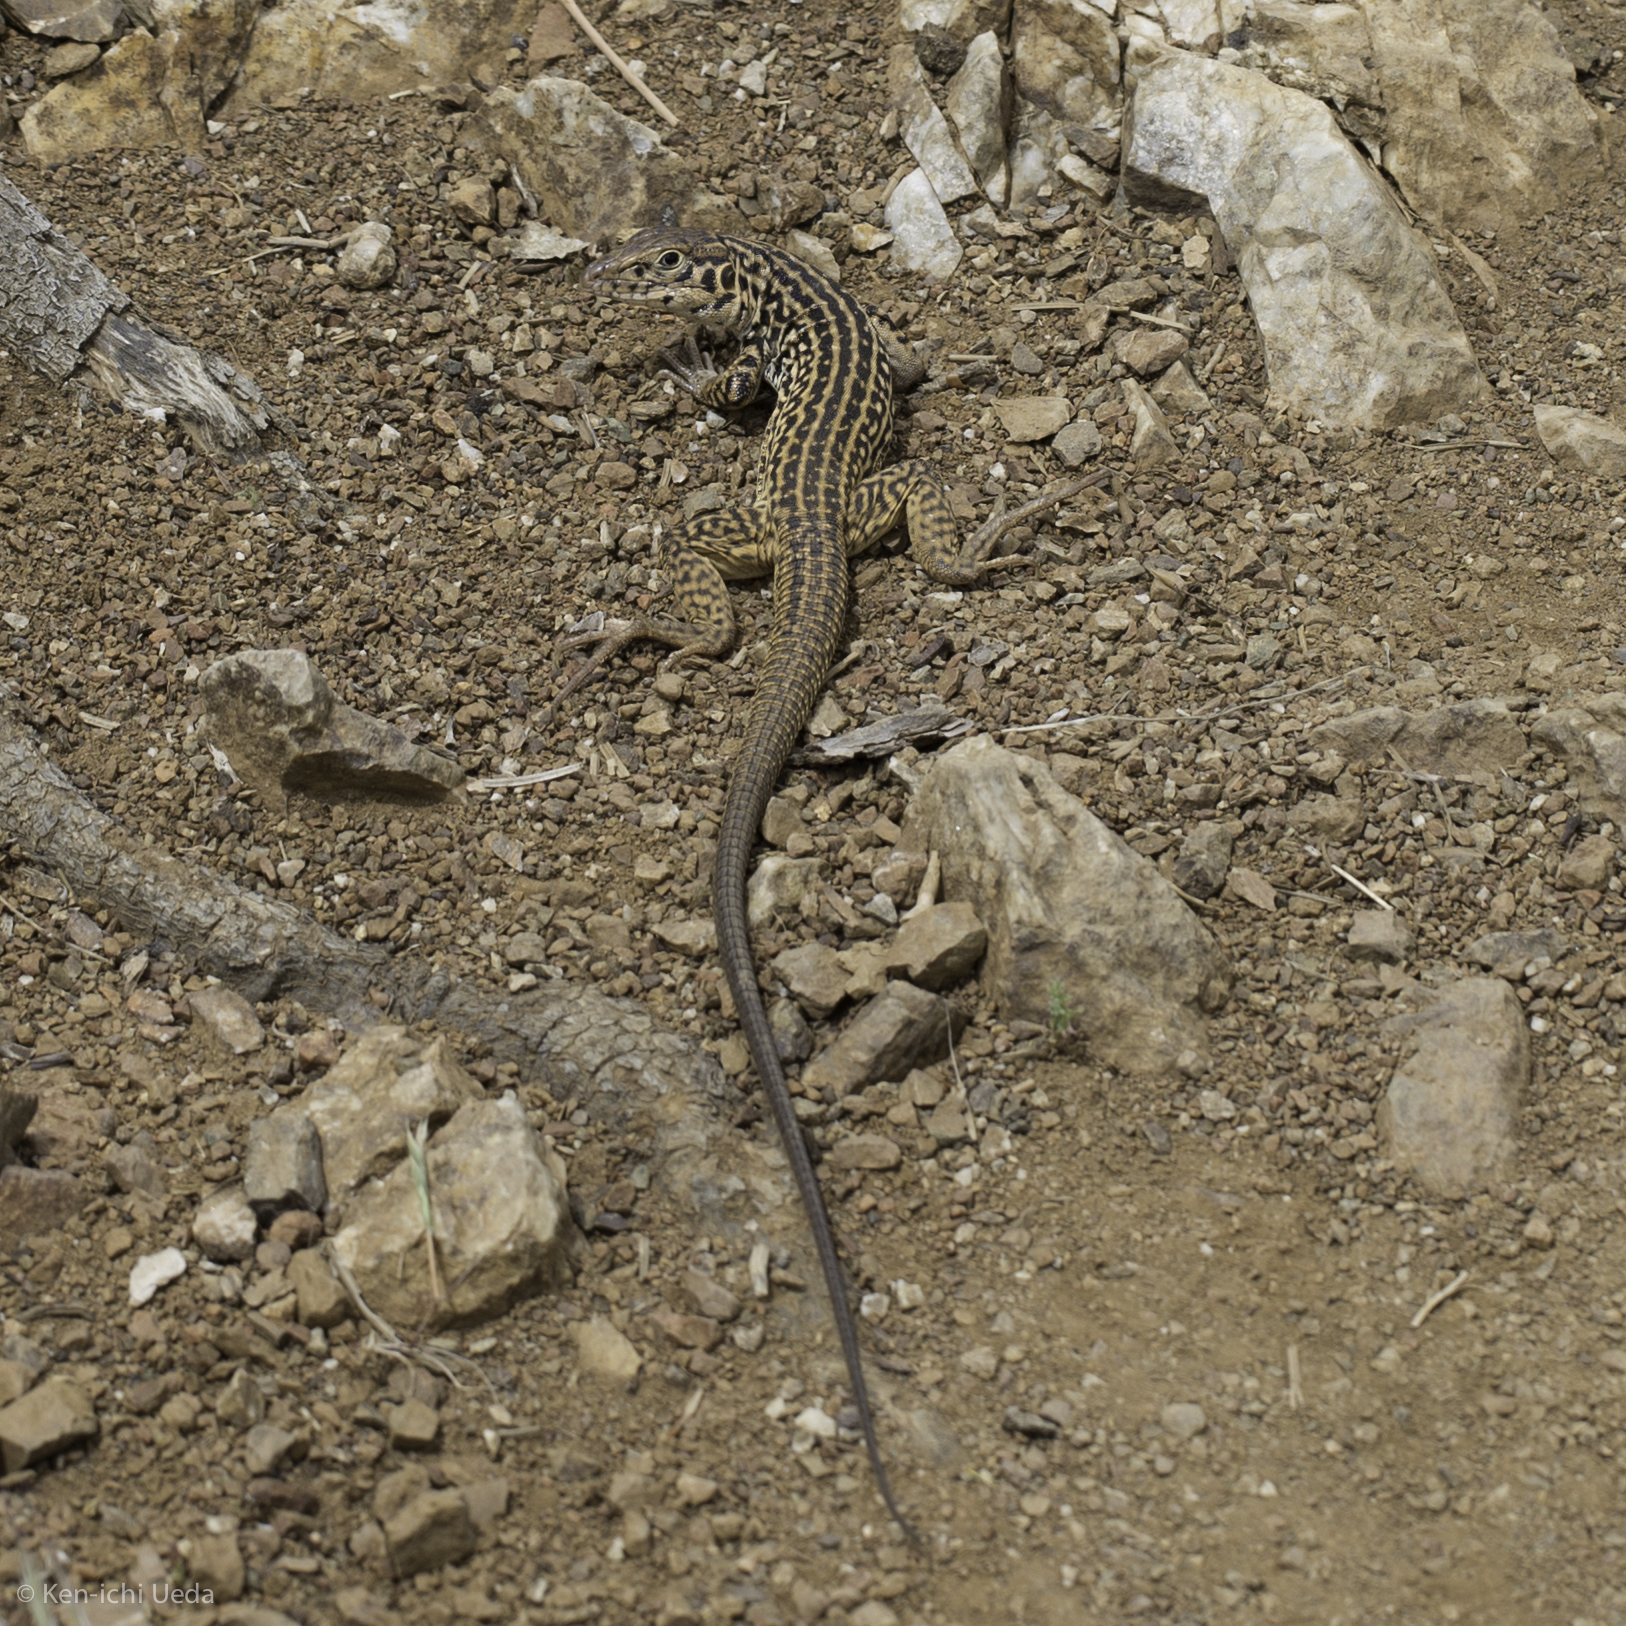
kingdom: Animalia
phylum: Chordata
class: Squamata
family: Teiidae
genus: Aspidoscelis
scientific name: Aspidoscelis tigris
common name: Tiger whiptail
